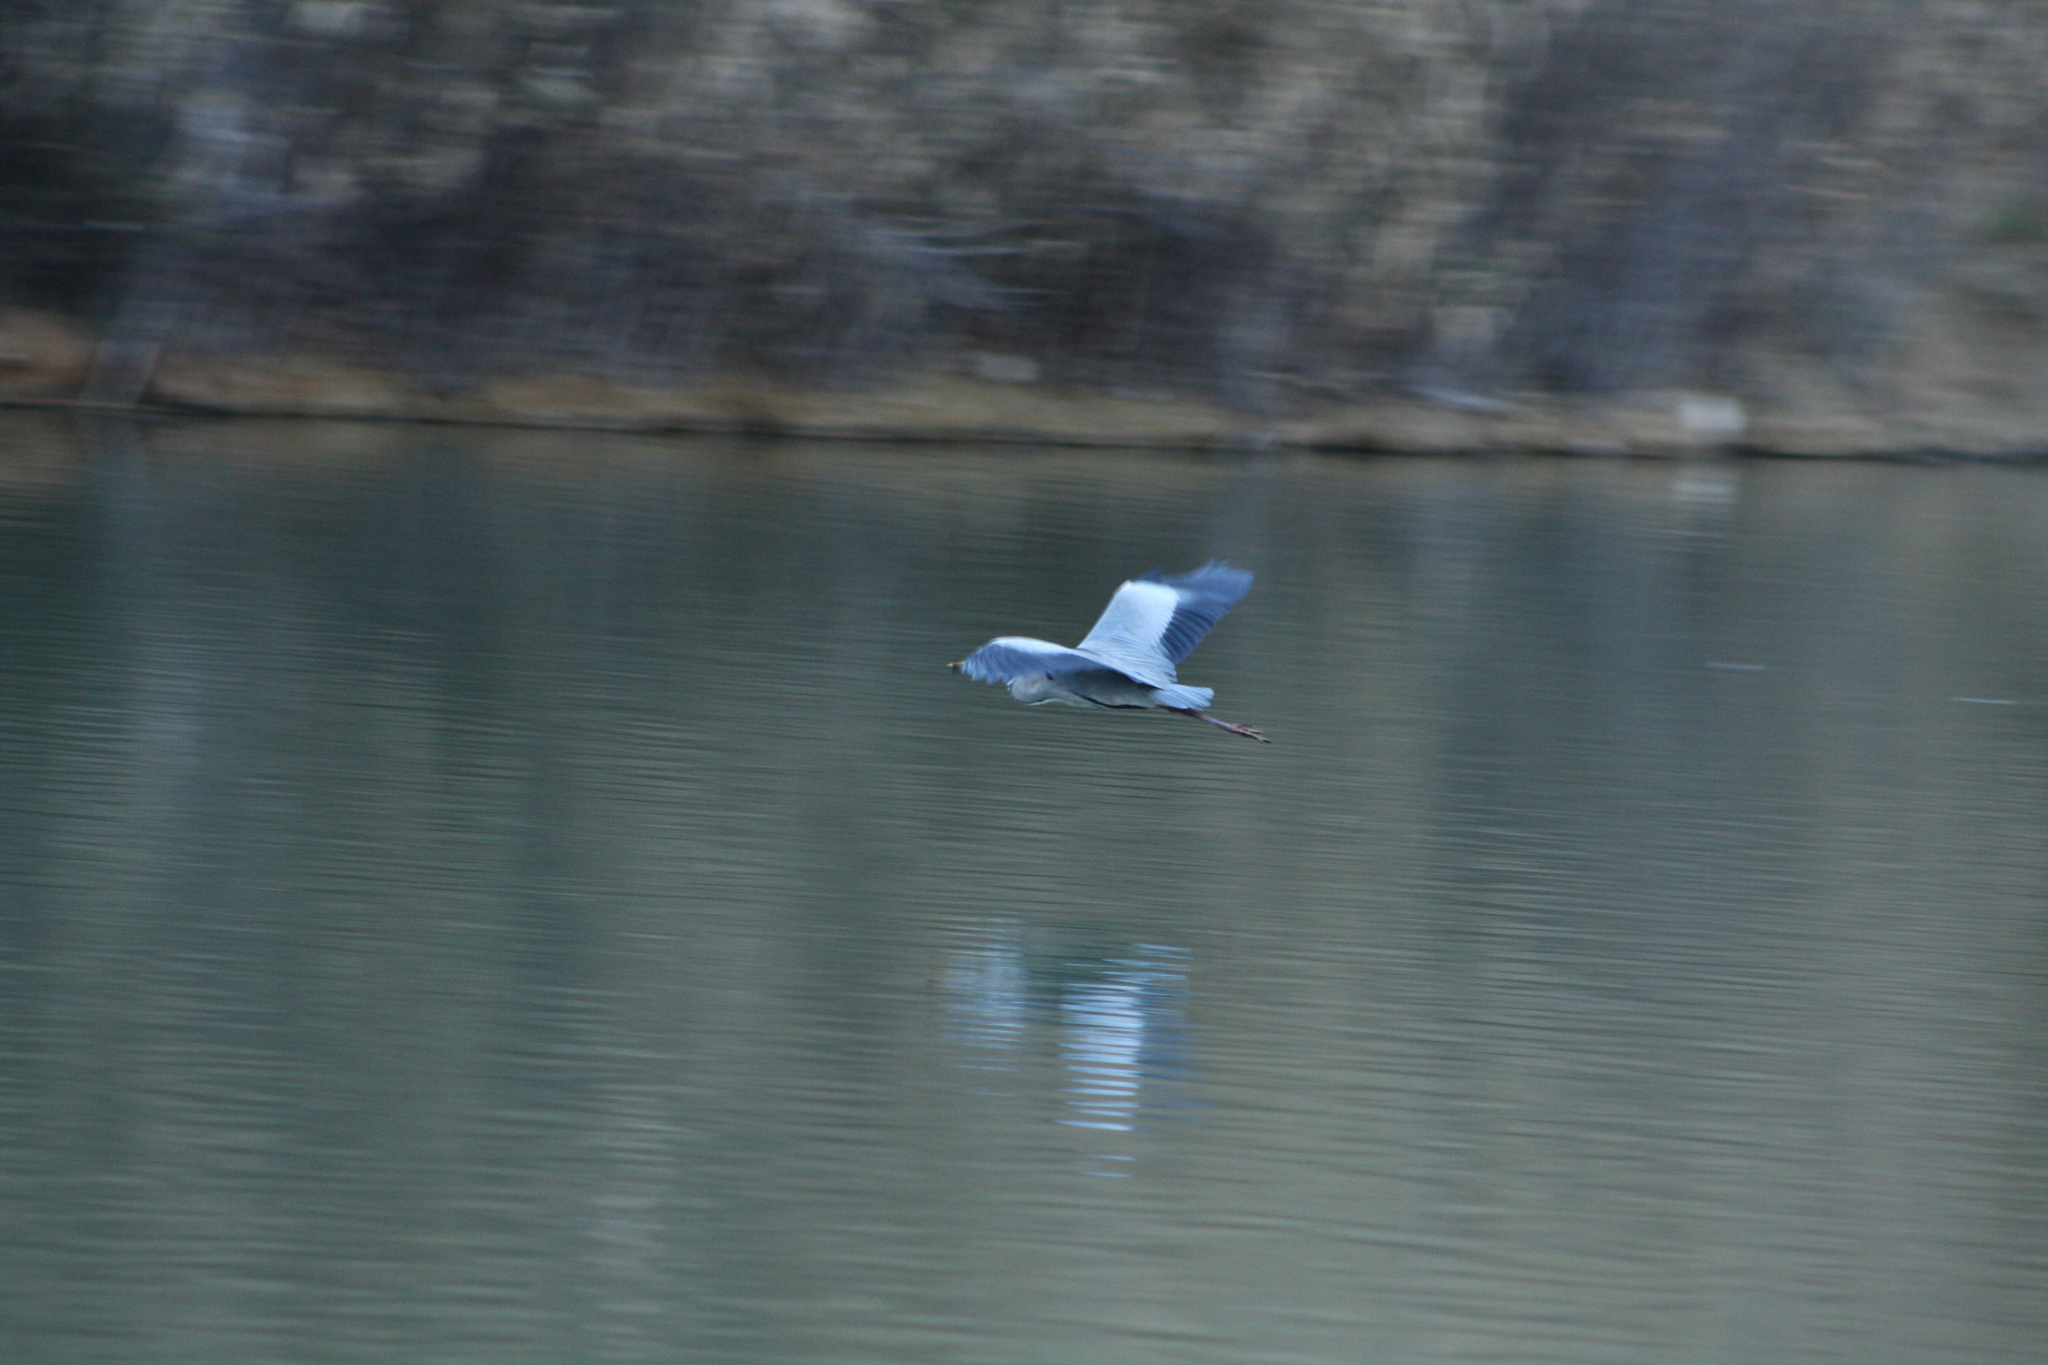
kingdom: Animalia
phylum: Chordata
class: Aves
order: Pelecaniformes
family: Ardeidae
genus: Ardea
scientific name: Ardea cinerea
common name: Grey heron
